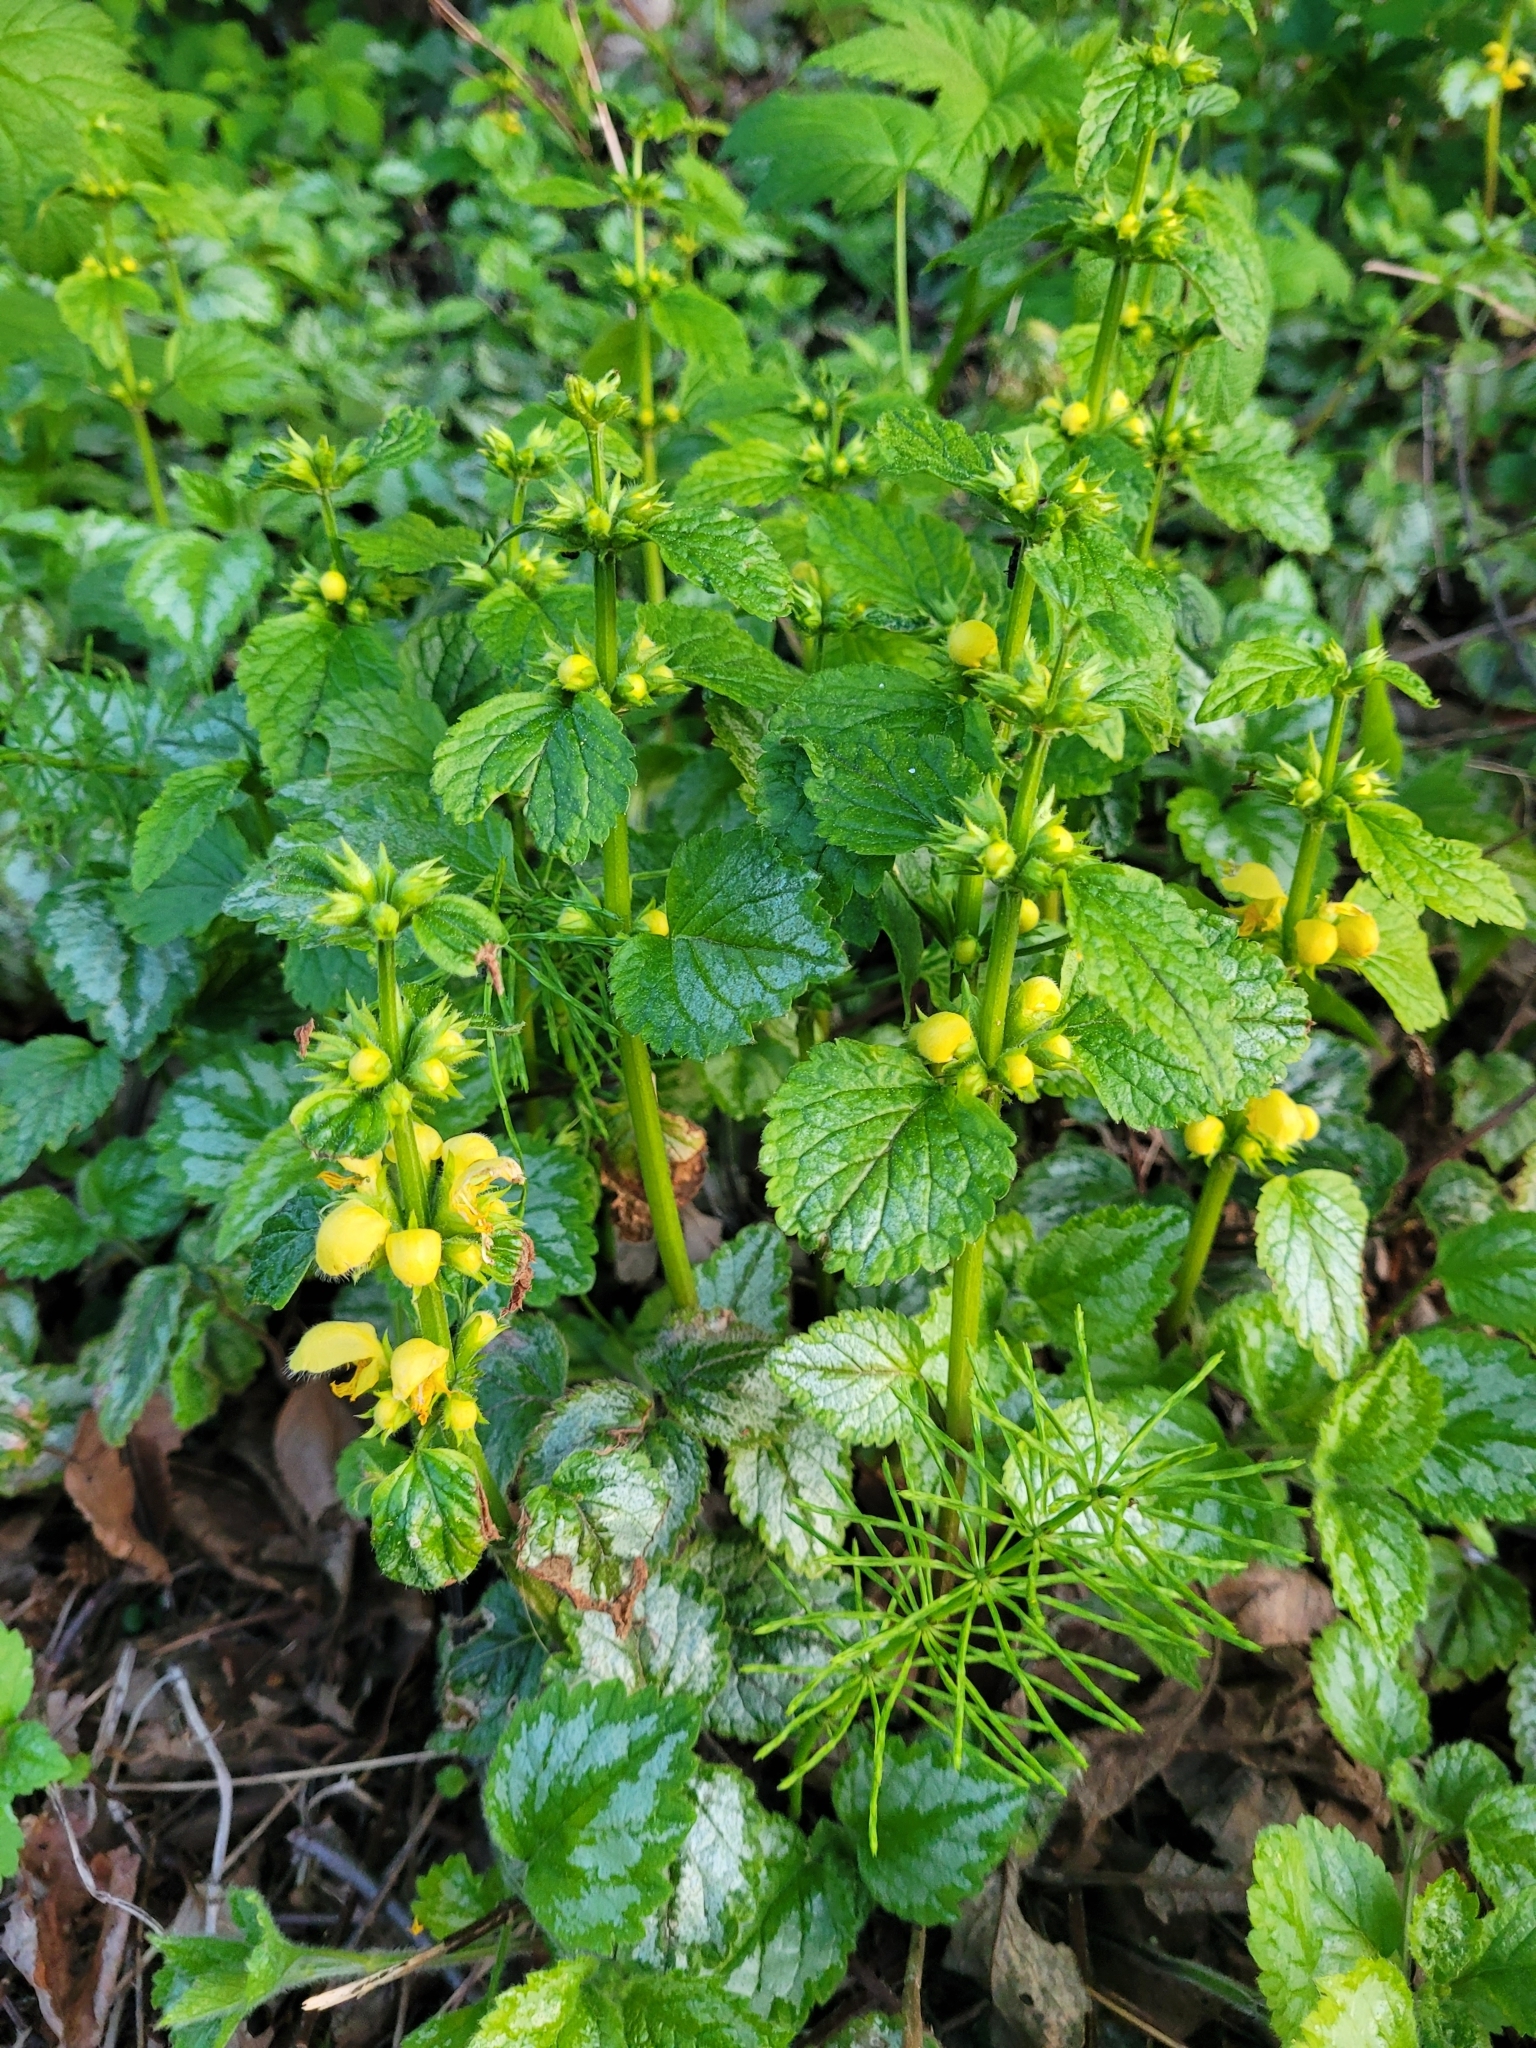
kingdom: Plantae
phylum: Tracheophyta
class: Magnoliopsida
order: Lamiales
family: Lamiaceae
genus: Lamium
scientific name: Lamium galeobdolon
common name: Yellow archangel
